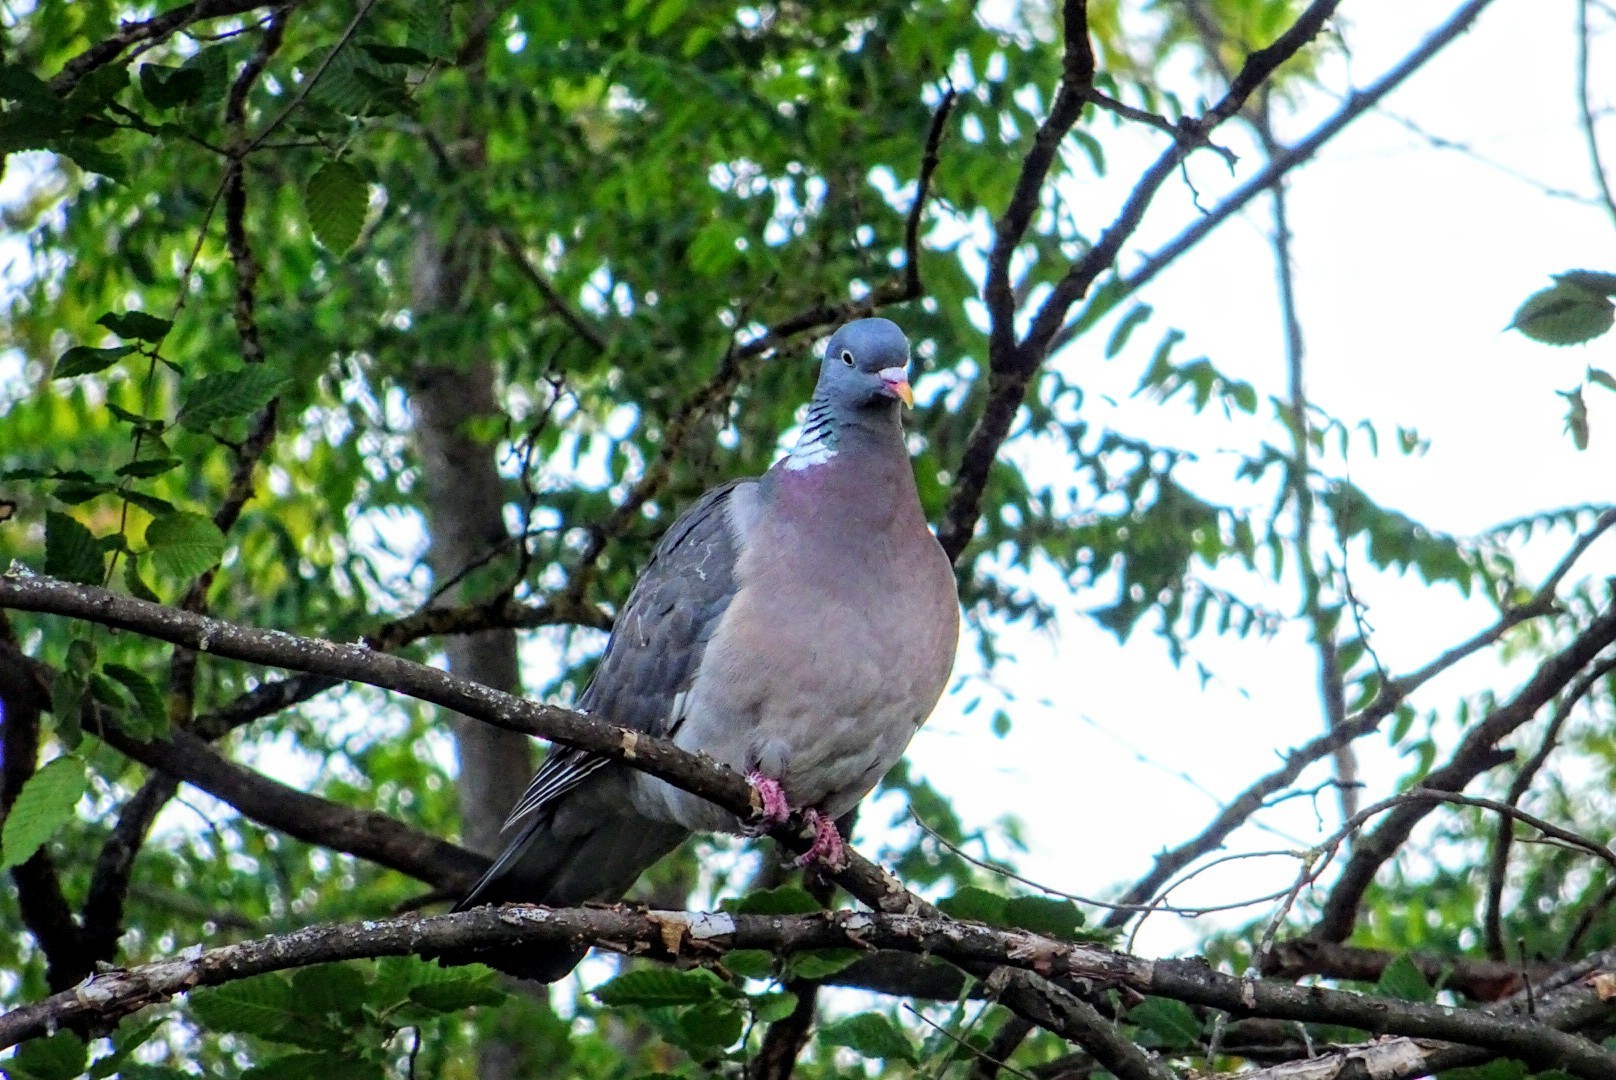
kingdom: Animalia
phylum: Chordata
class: Aves
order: Columbiformes
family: Columbidae
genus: Columba
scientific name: Columba palumbus
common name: Common wood pigeon
